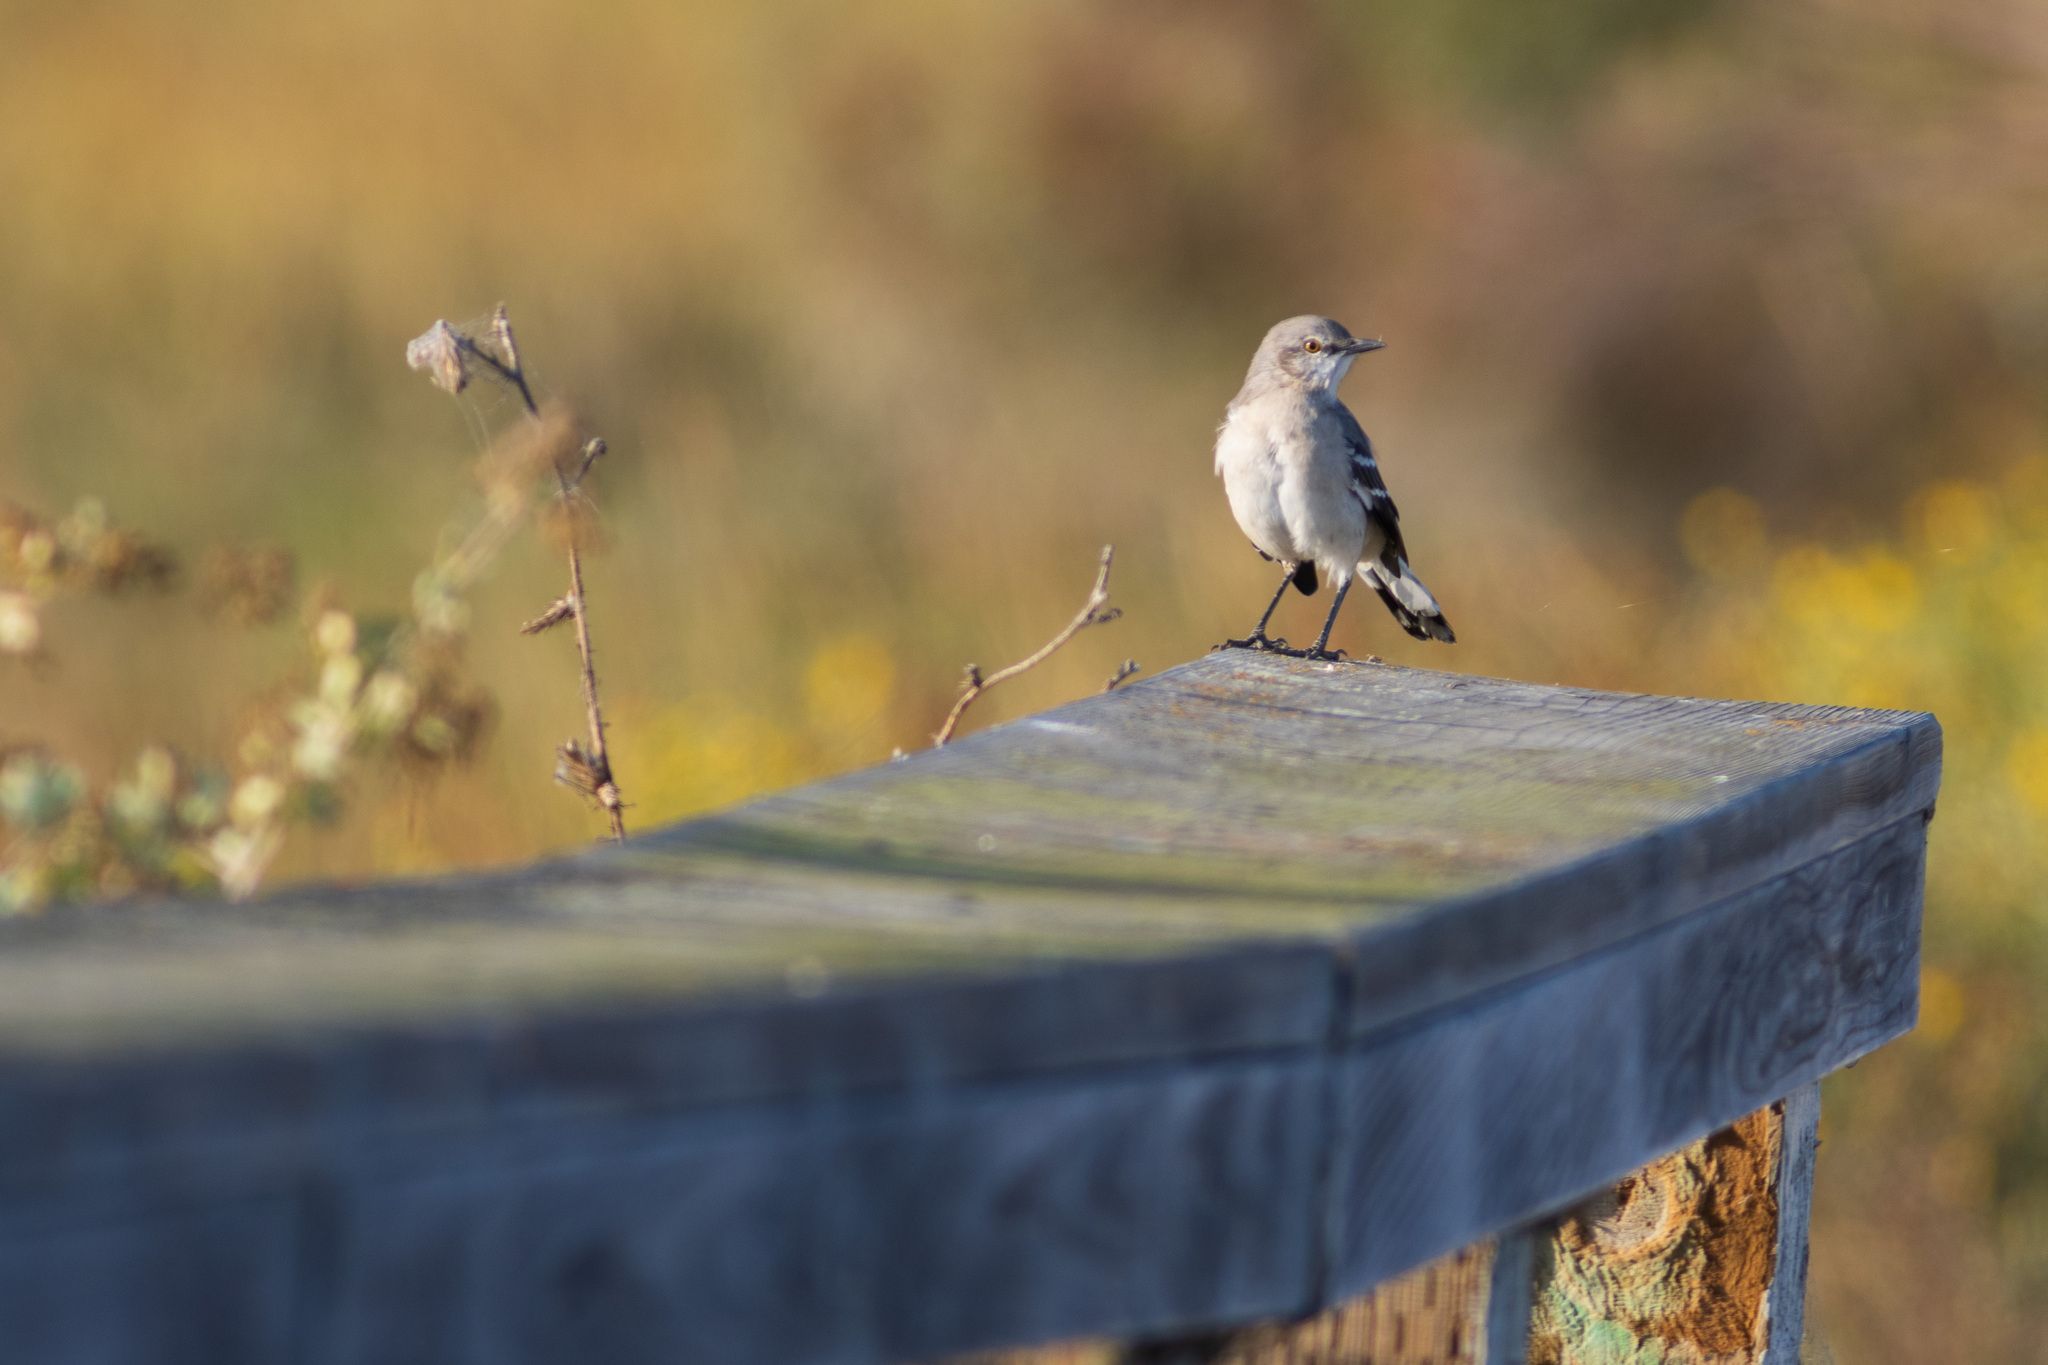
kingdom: Animalia
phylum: Chordata
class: Aves
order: Passeriformes
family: Mimidae
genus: Mimus
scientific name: Mimus polyglottos
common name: Northern mockingbird
